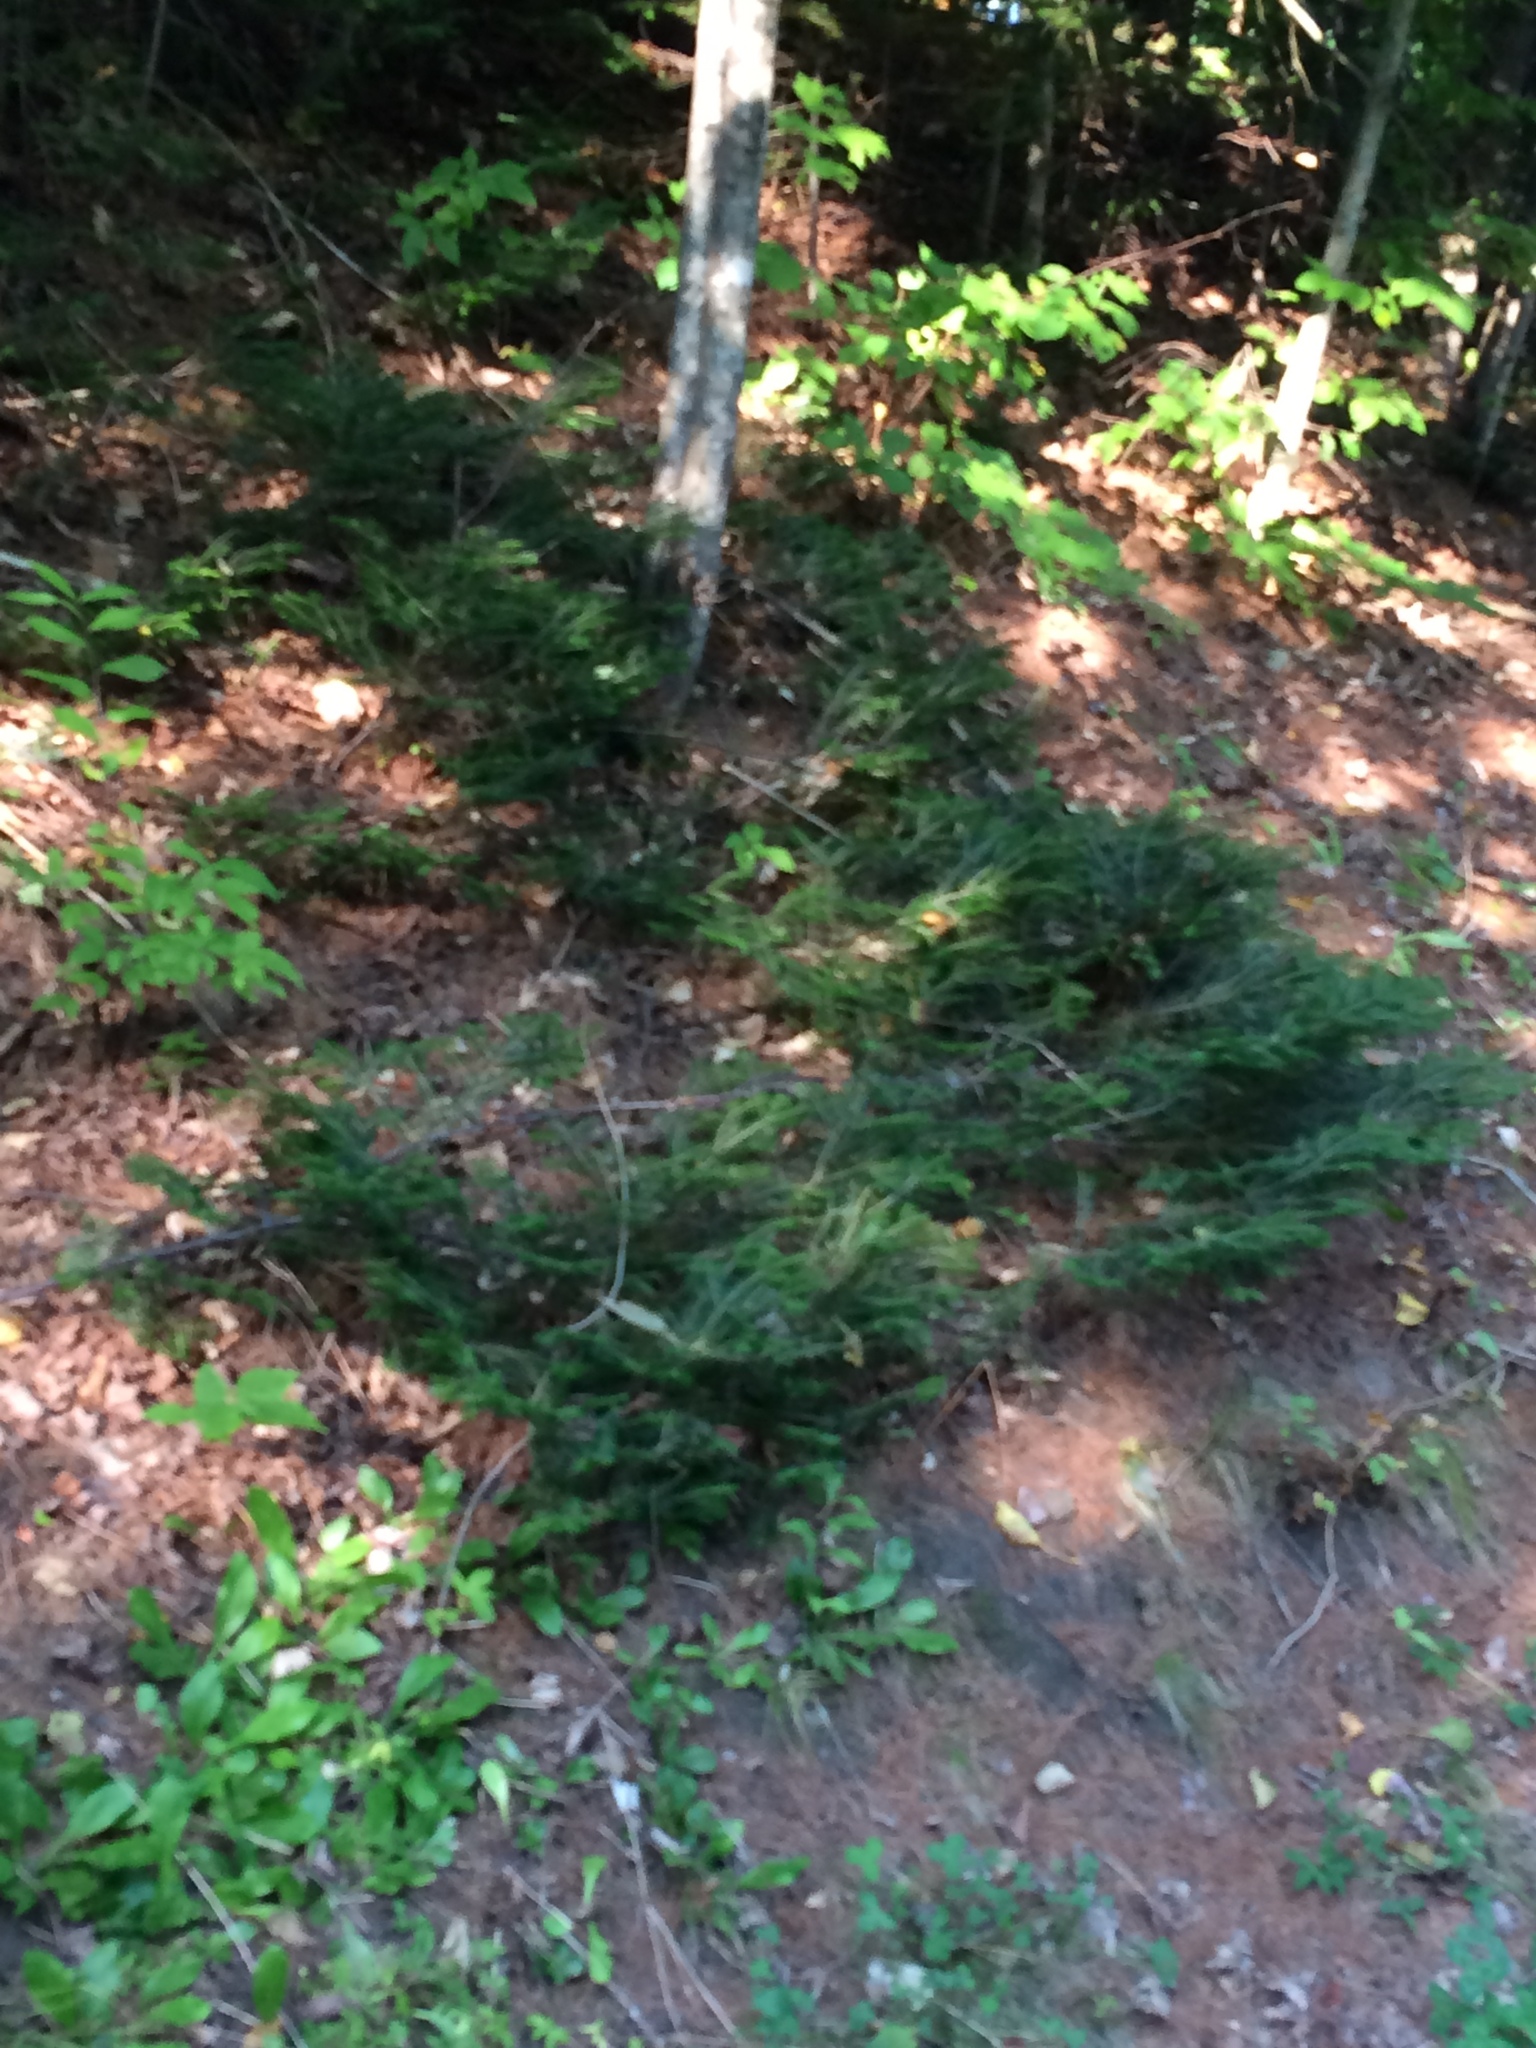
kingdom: Plantae
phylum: Tracheophyta
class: Pinopsida
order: Pinales
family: Pinaceae
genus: Abies
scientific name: Abies balsamea
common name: Balsam fir
